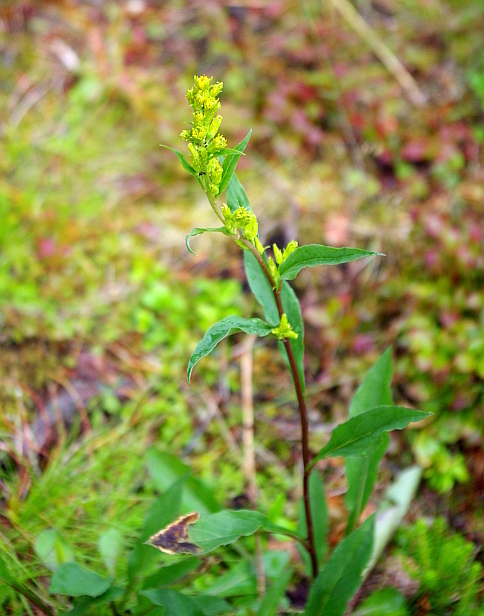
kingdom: Plantae
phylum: Tracheophyta
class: Magnoliopsida
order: Asterales
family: Asteraceae
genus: Solidago
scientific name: Solidago virgaurea
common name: Goldenrod
